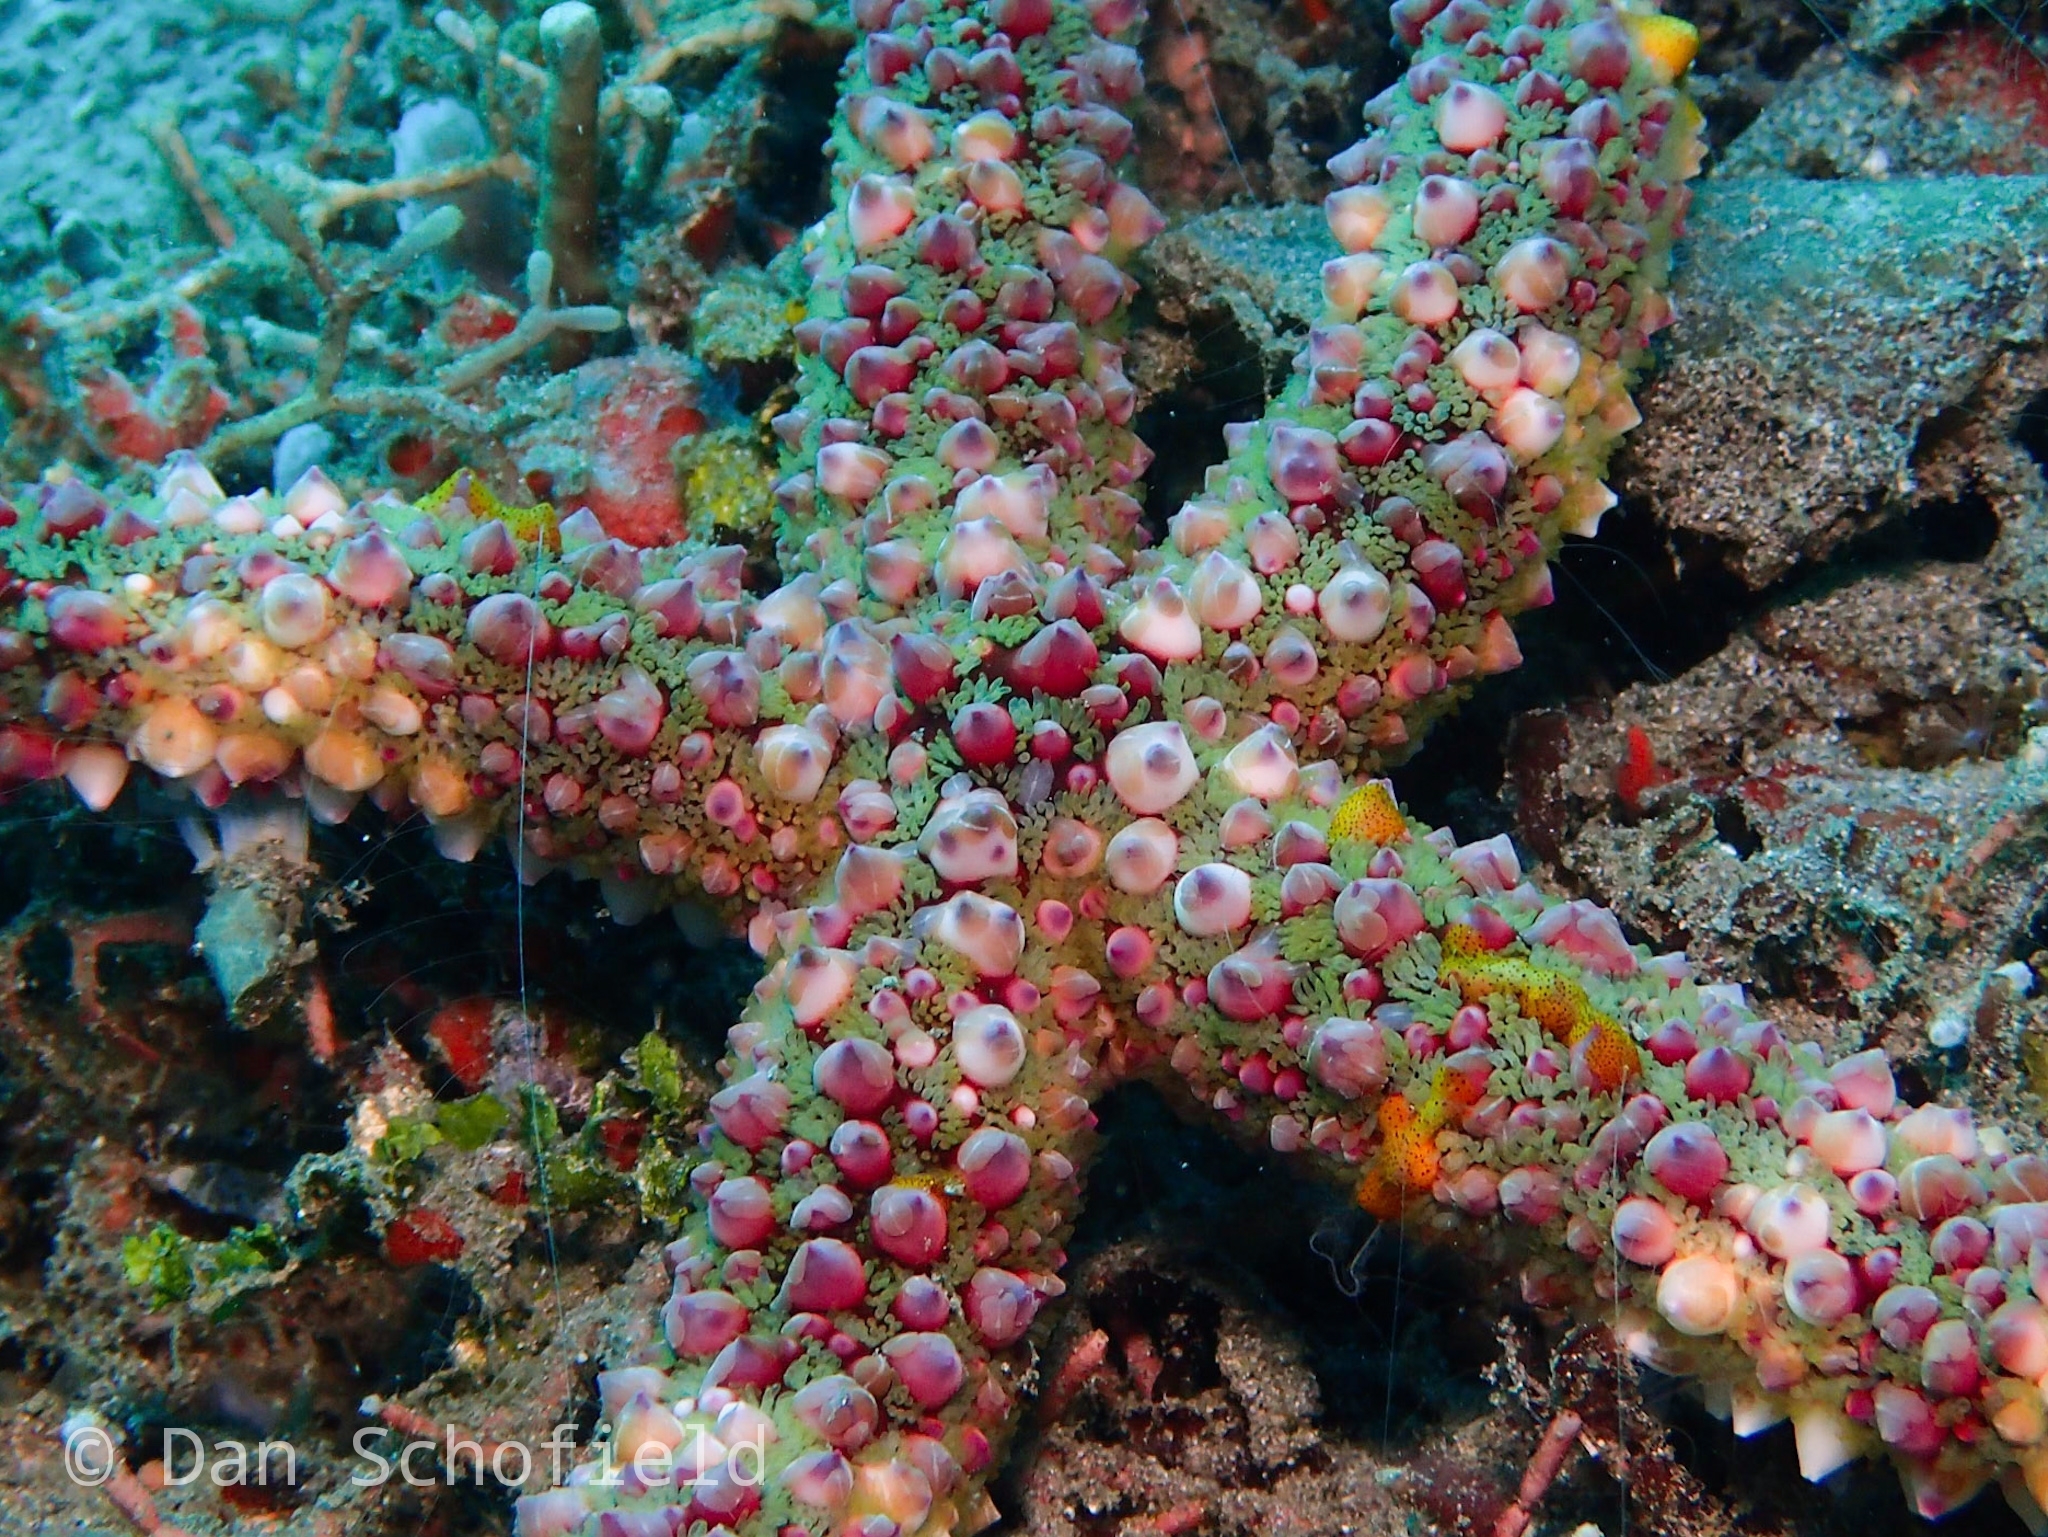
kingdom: Animalia
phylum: Echinodermata
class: Asteroidea
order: Spinulosida
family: Echinasteridae
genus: Echinaster
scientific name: Echinaster callosus
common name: Banded bubble star
